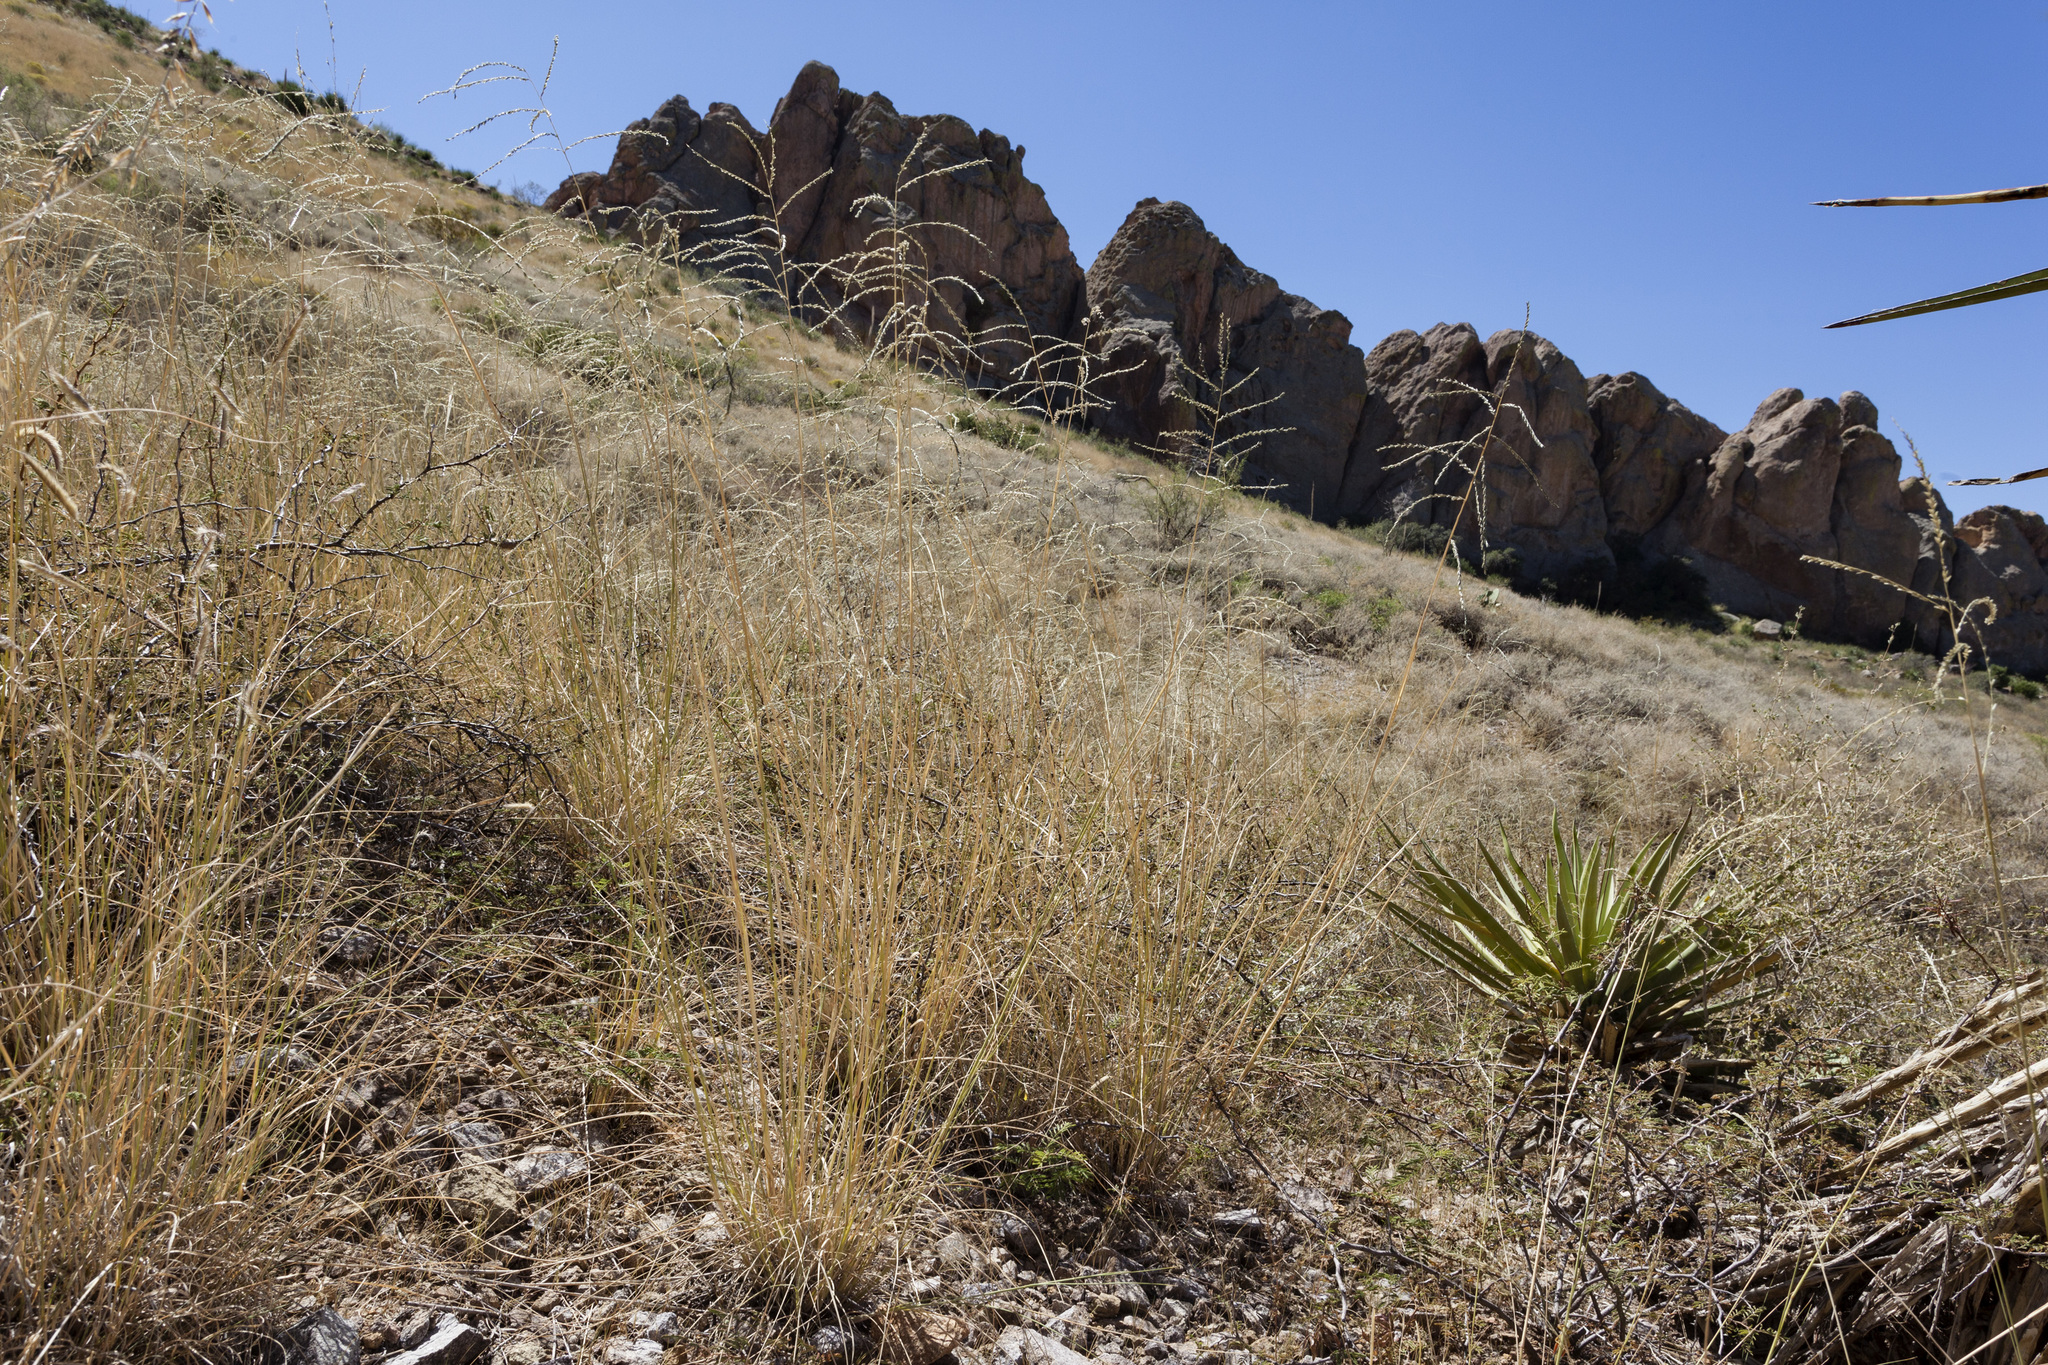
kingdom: Plantae
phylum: Tracheophyta
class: Liliopsida
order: Poales
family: Poaceae
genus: Disakisperma
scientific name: Disakisperma dubium
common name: Green sprangletop
